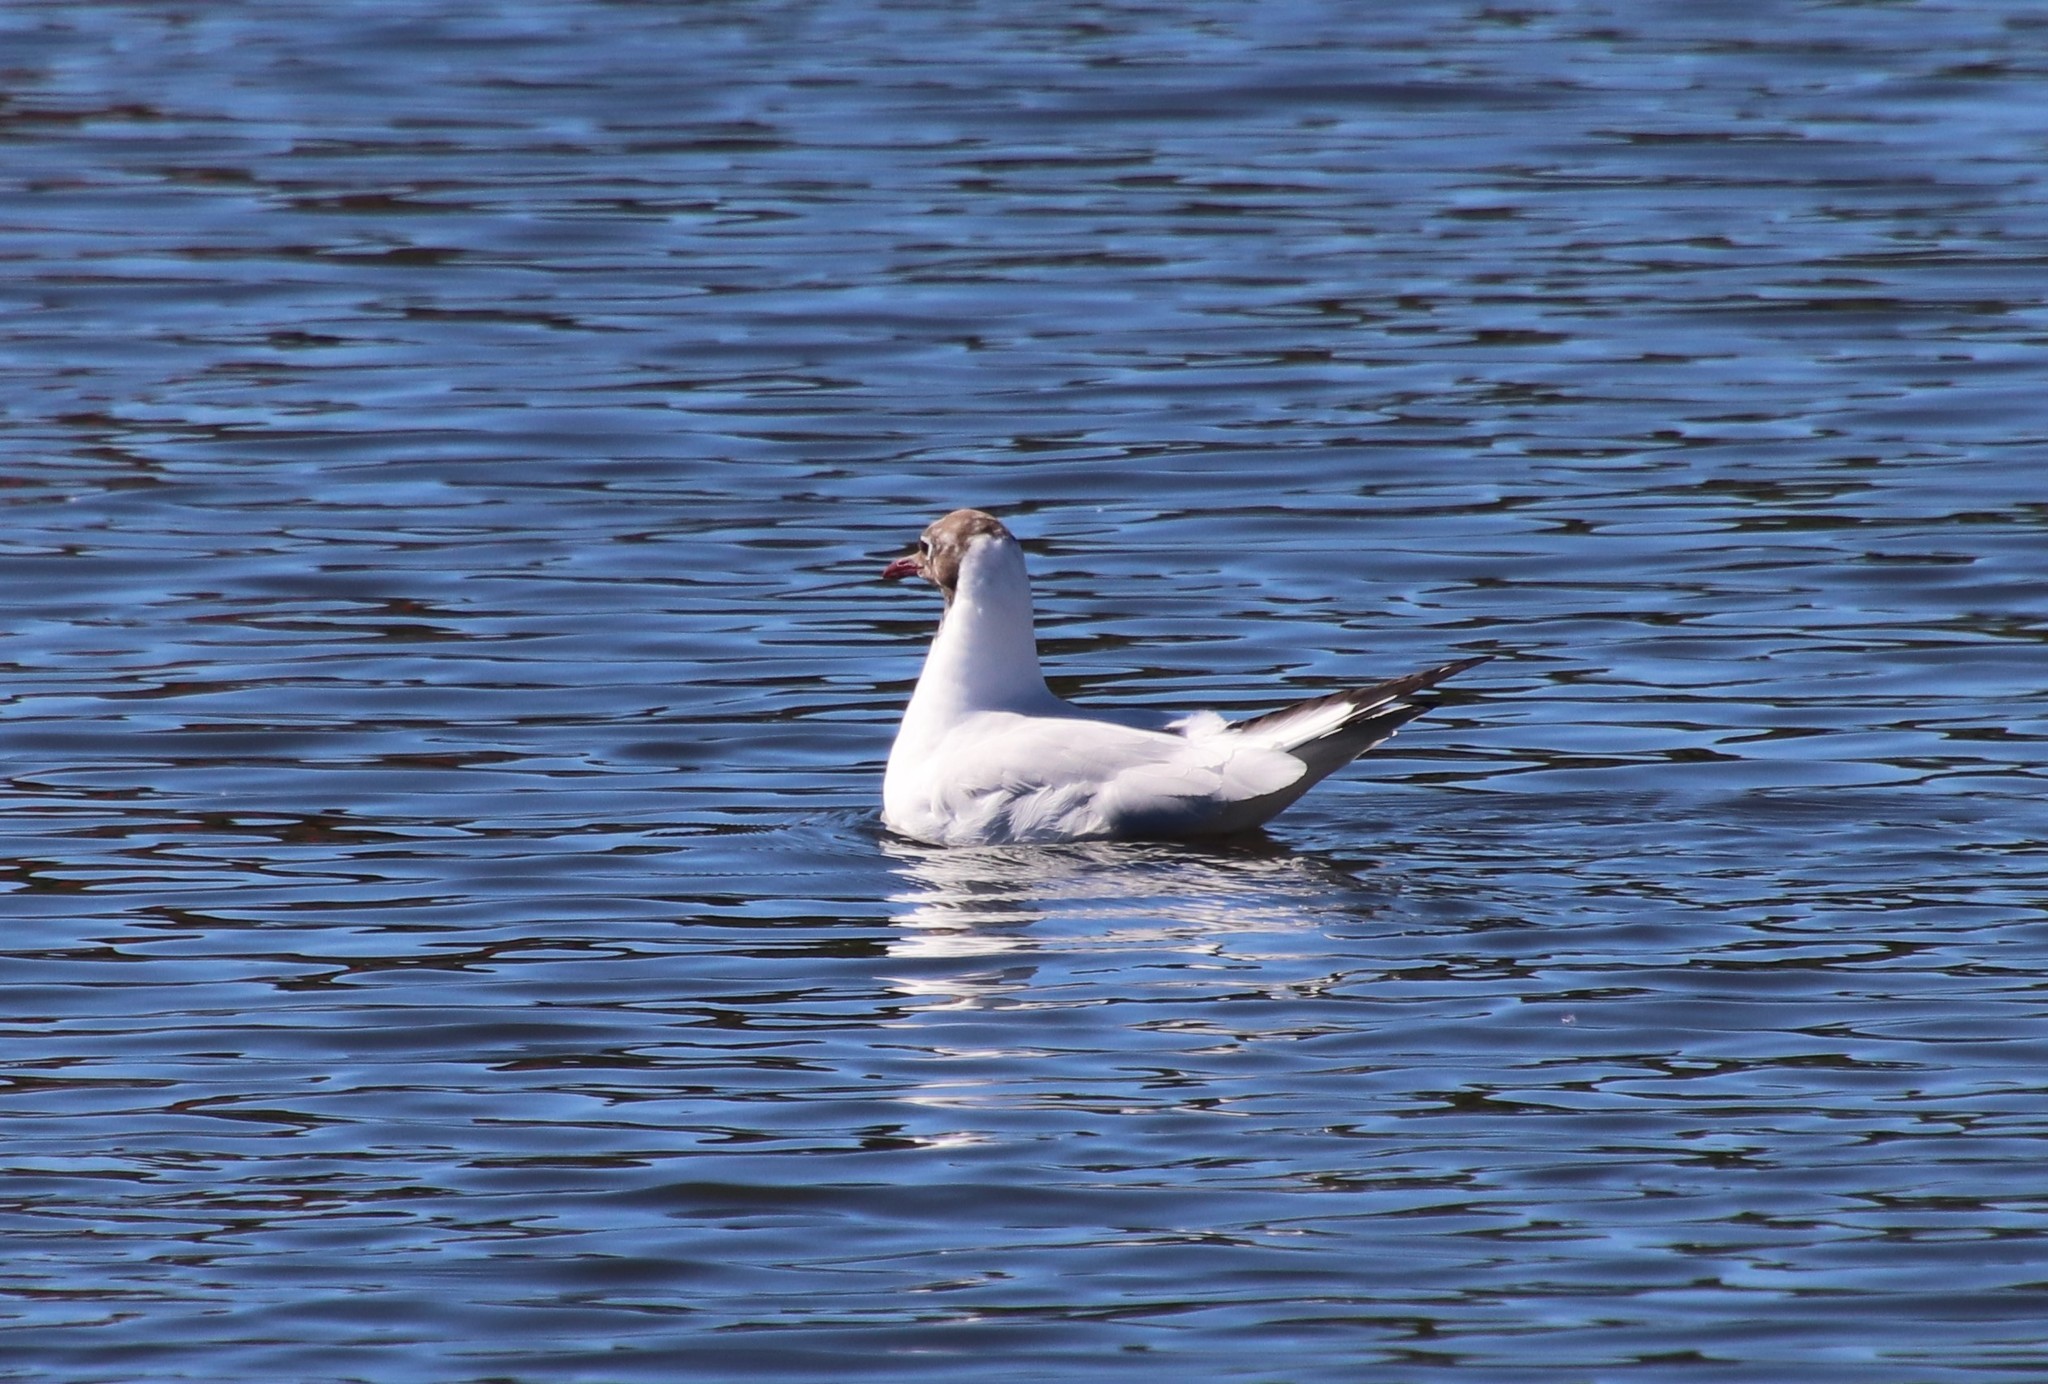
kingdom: Animalia
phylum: Chordata
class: Aves
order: Charadriiformes
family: Laridae
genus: Chroicocephalus
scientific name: Chroicocephalus ridibundus
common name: Black-headed gull
